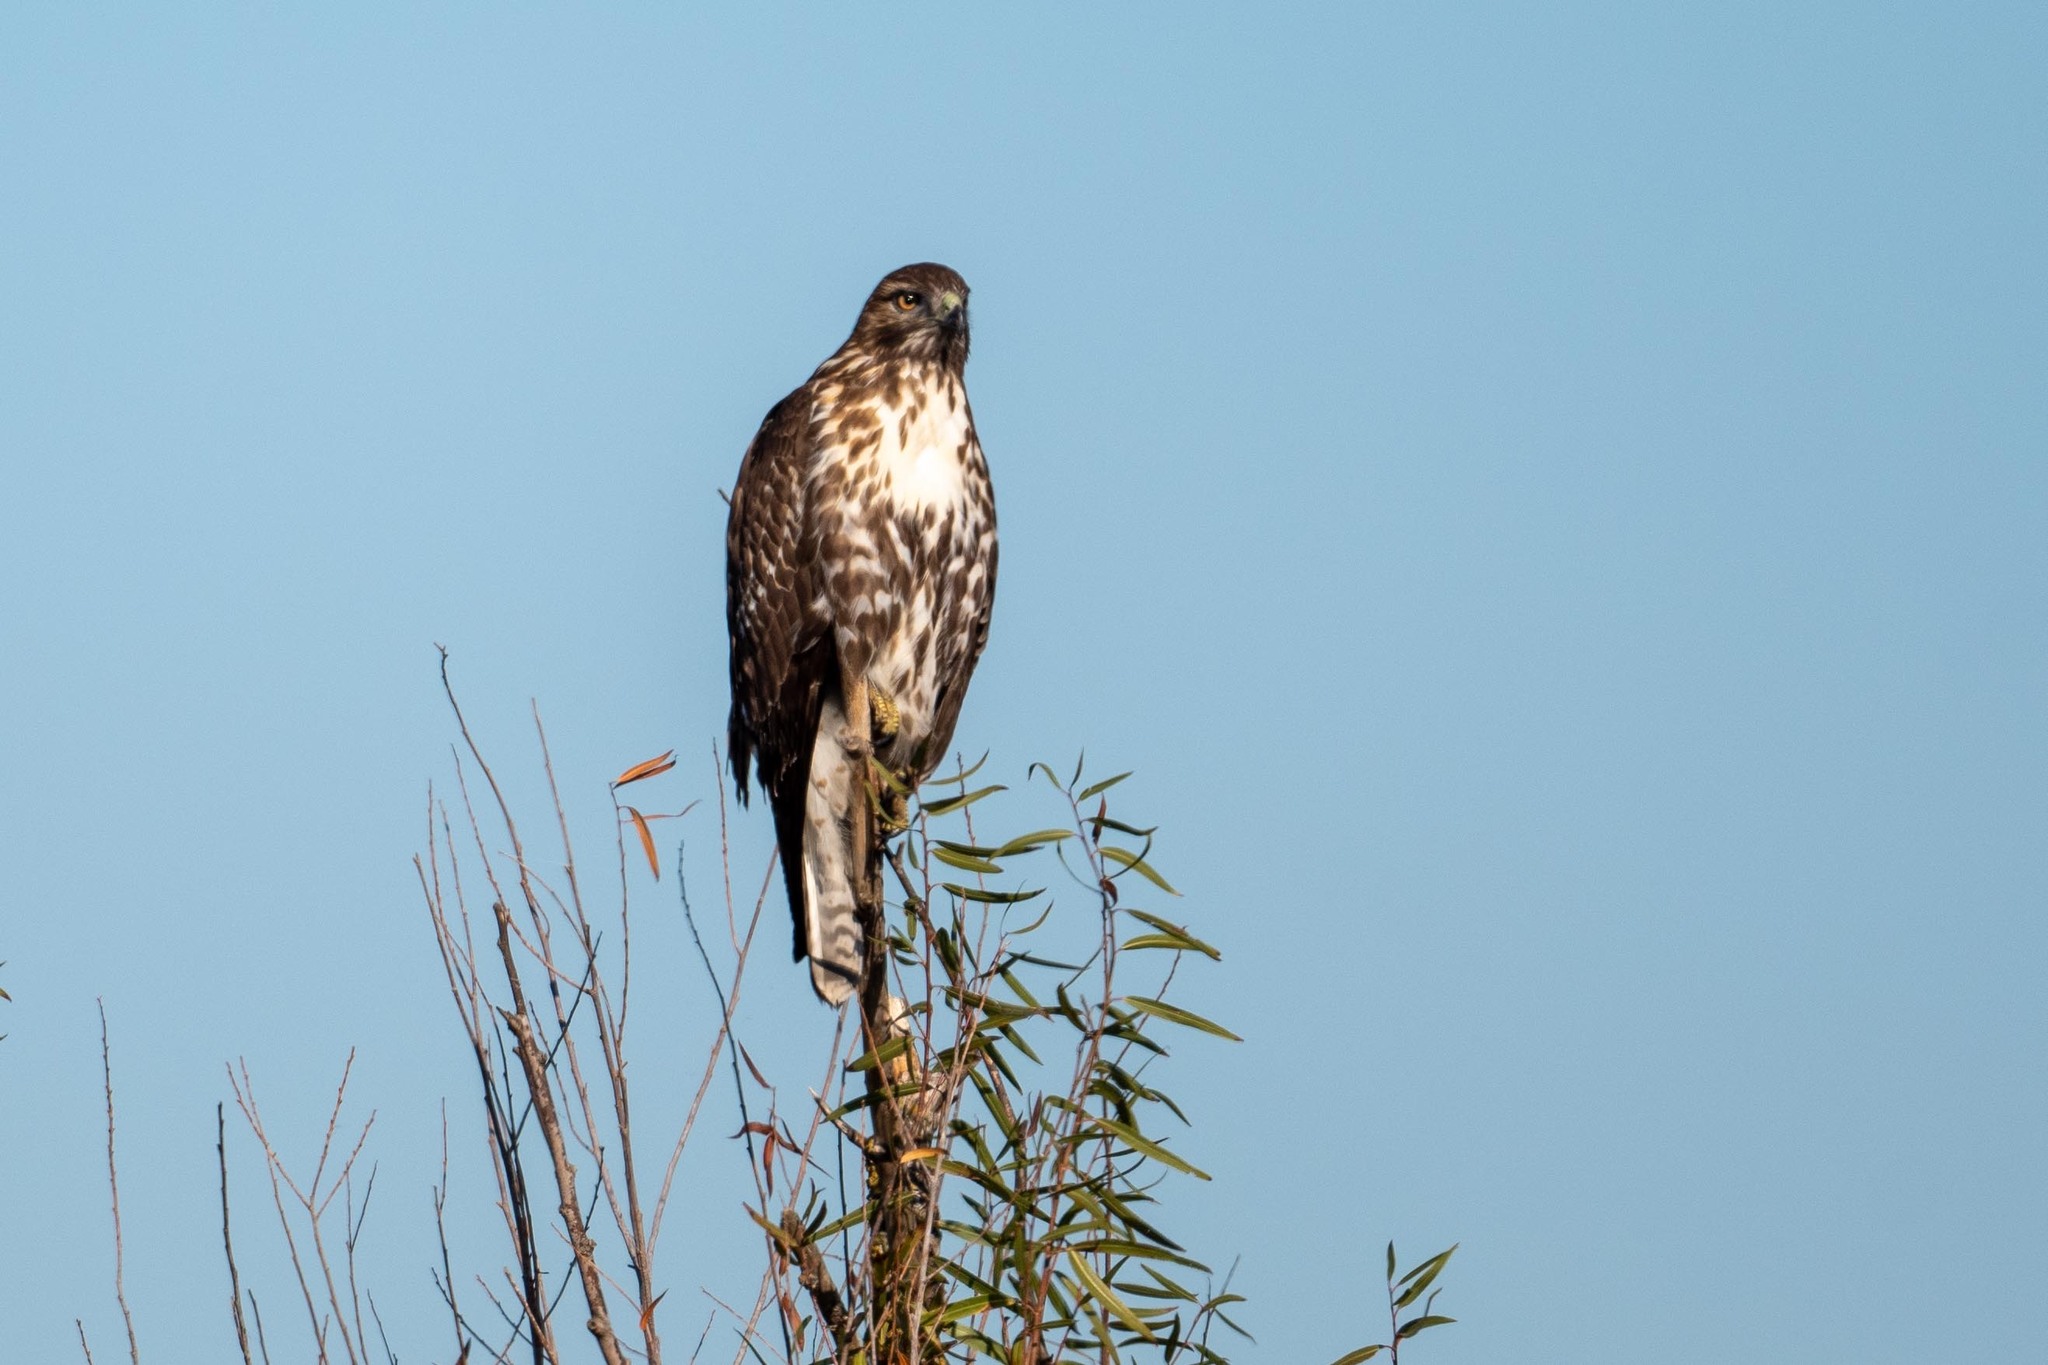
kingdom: Animalia
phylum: Chordata
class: Aves
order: Accipitriformes
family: Accipitridae
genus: Buteo
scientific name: Buteo jamaicensis
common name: Red-tailed hawk
